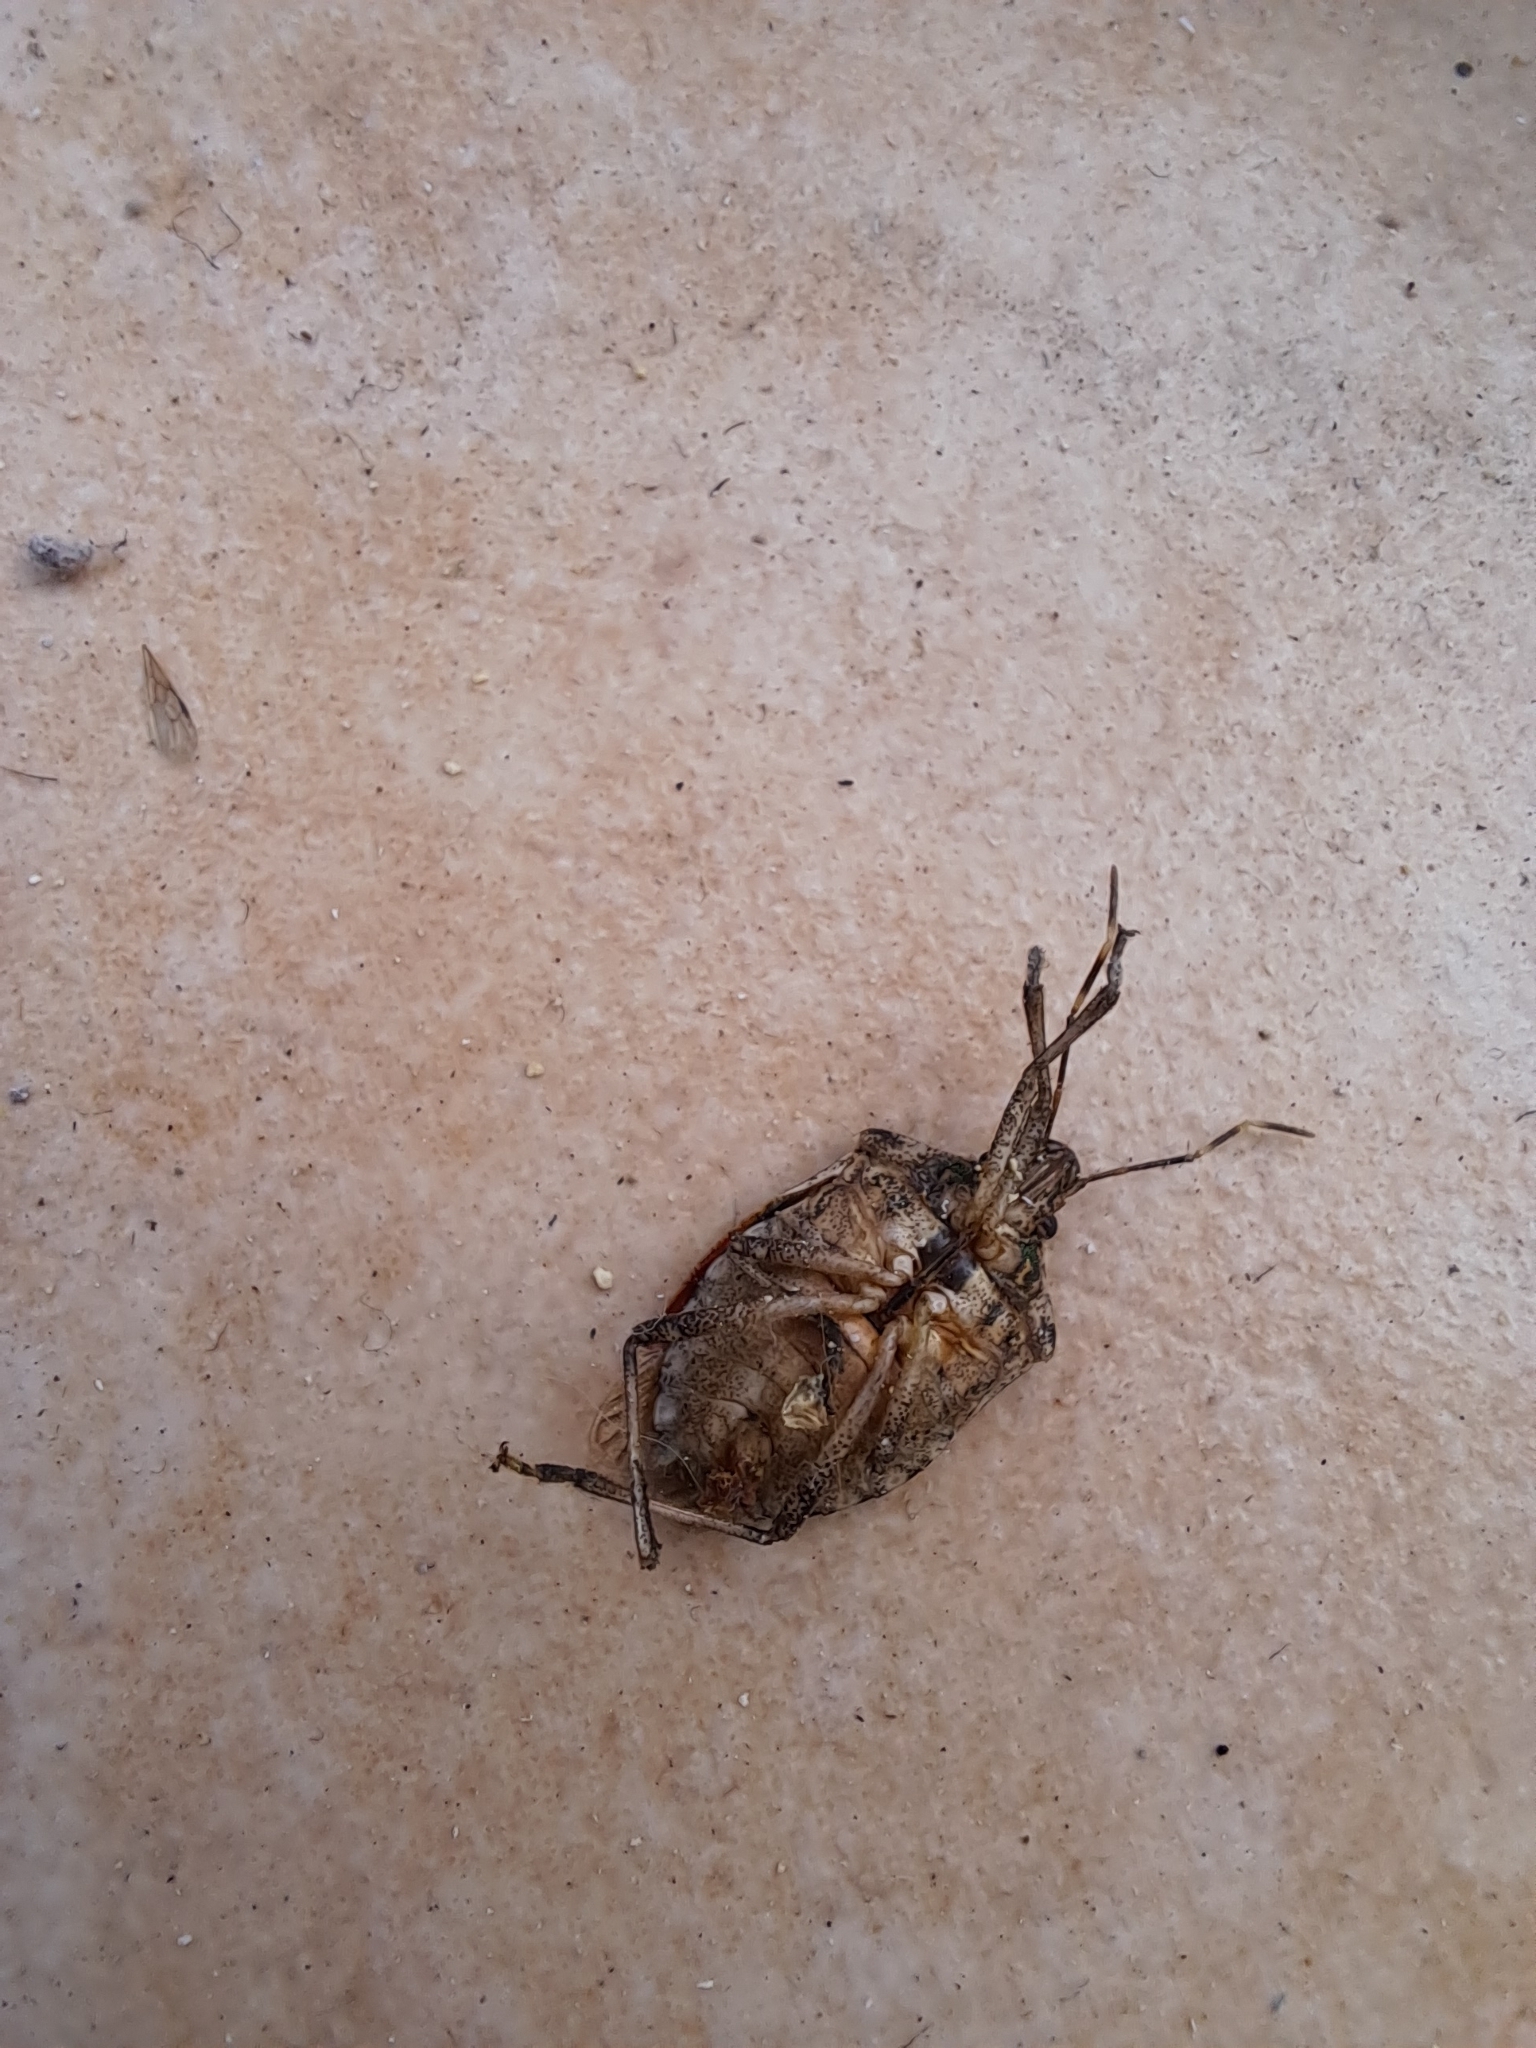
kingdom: Animalia
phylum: Arthropoda
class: Insecta
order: Hemiptera
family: Pentatomidae
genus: Halyomorpha
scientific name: Halyomorpha halys
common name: Brown marmorated stink bug
